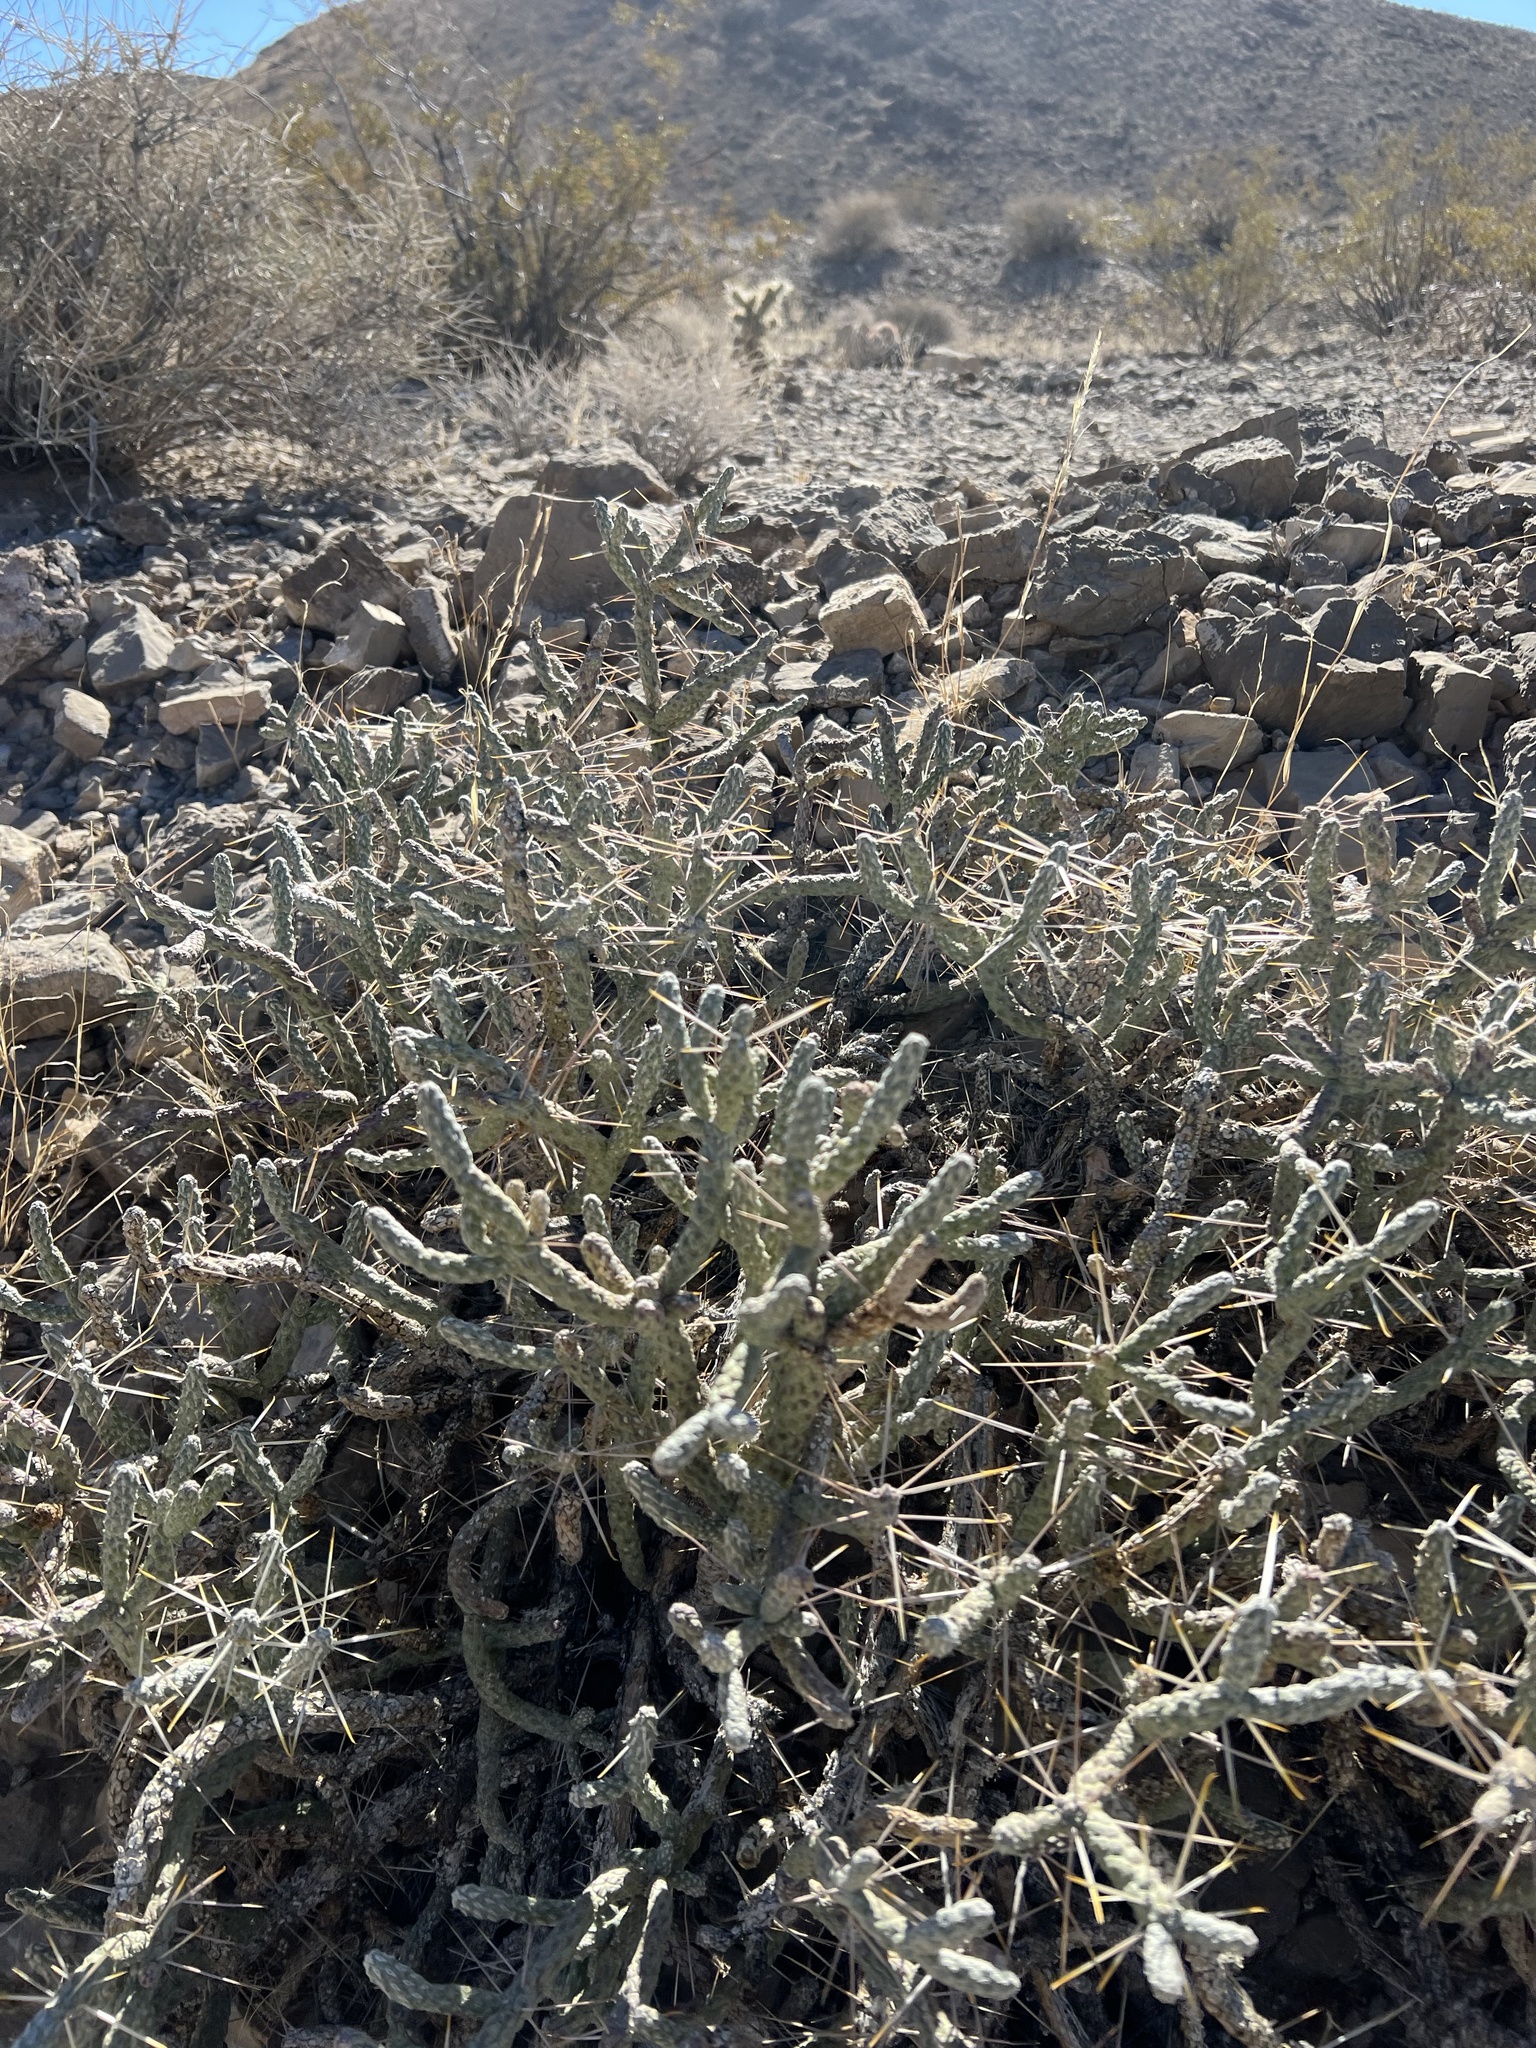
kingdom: Plantae
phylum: Tracheophyta
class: Magnoliopsida
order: Caryophyllales
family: Cactaceae
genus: Cylindropuntia
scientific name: Cylindropuntia ramosissima
